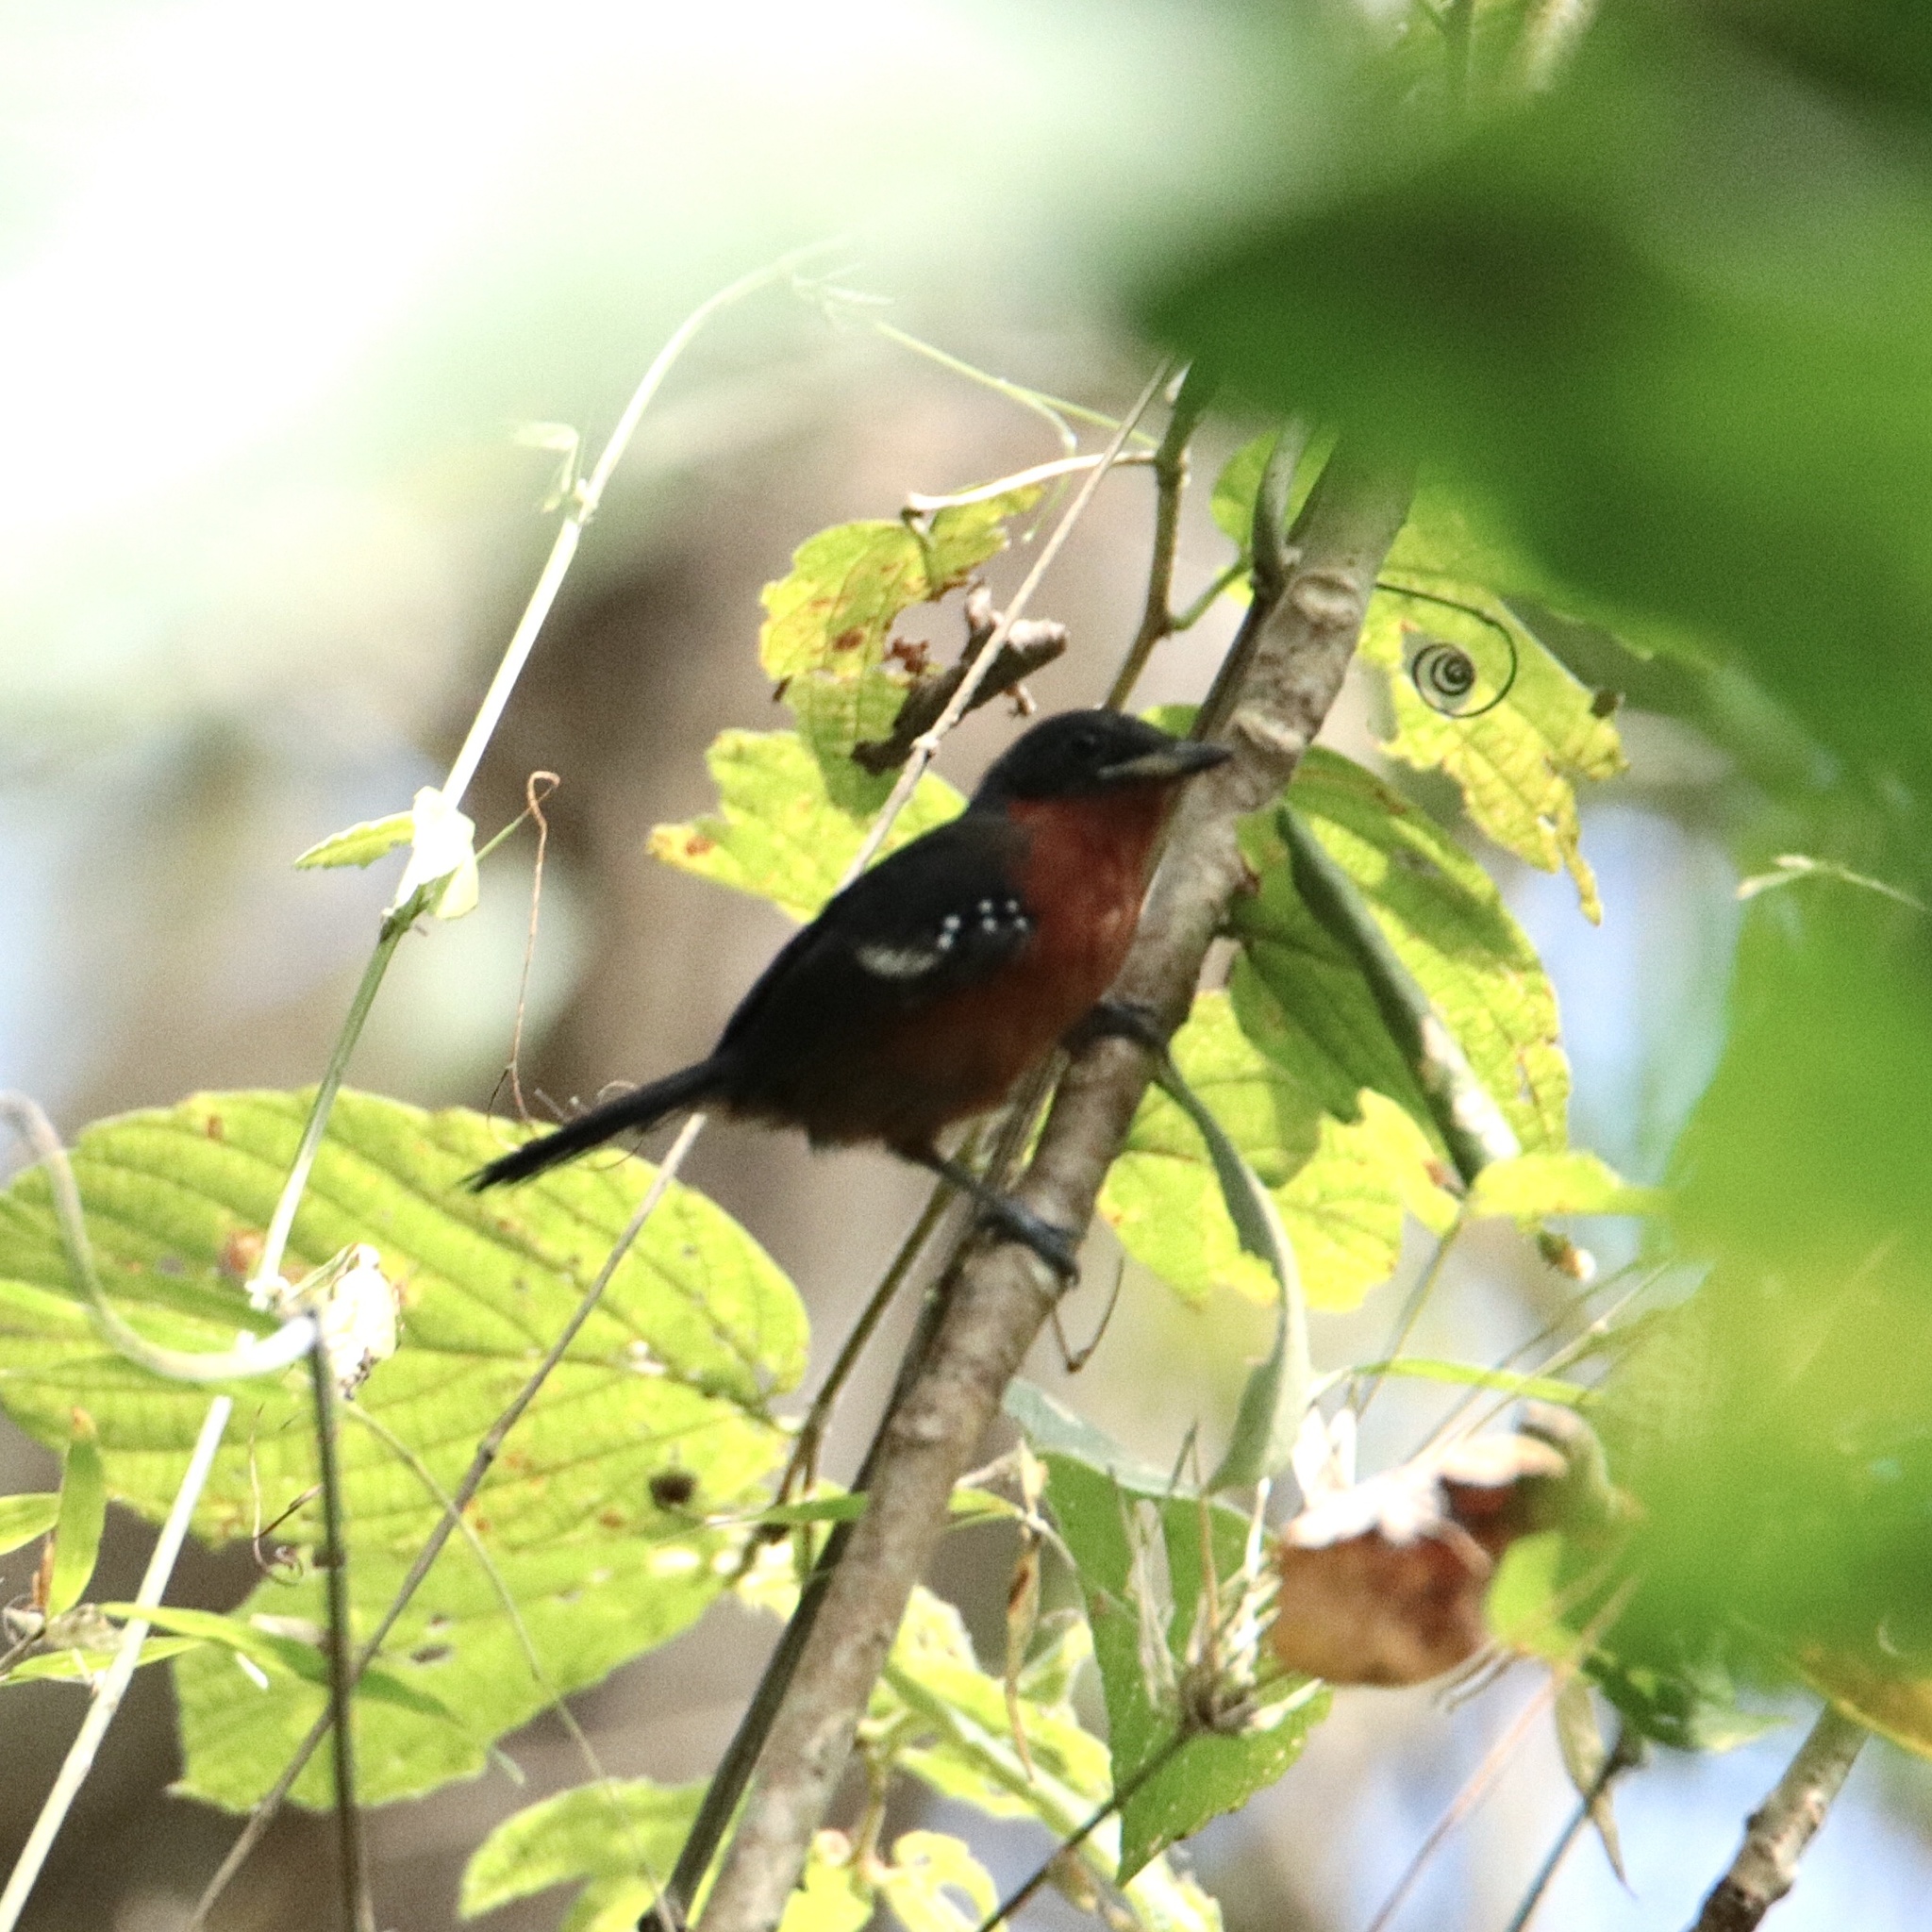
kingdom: Animalia
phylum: Chordata
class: Aves
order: Passeriformes
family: Thamnophilidae
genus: Microrhopias
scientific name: Microrhopias quixensis
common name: Dot-winged antwren
